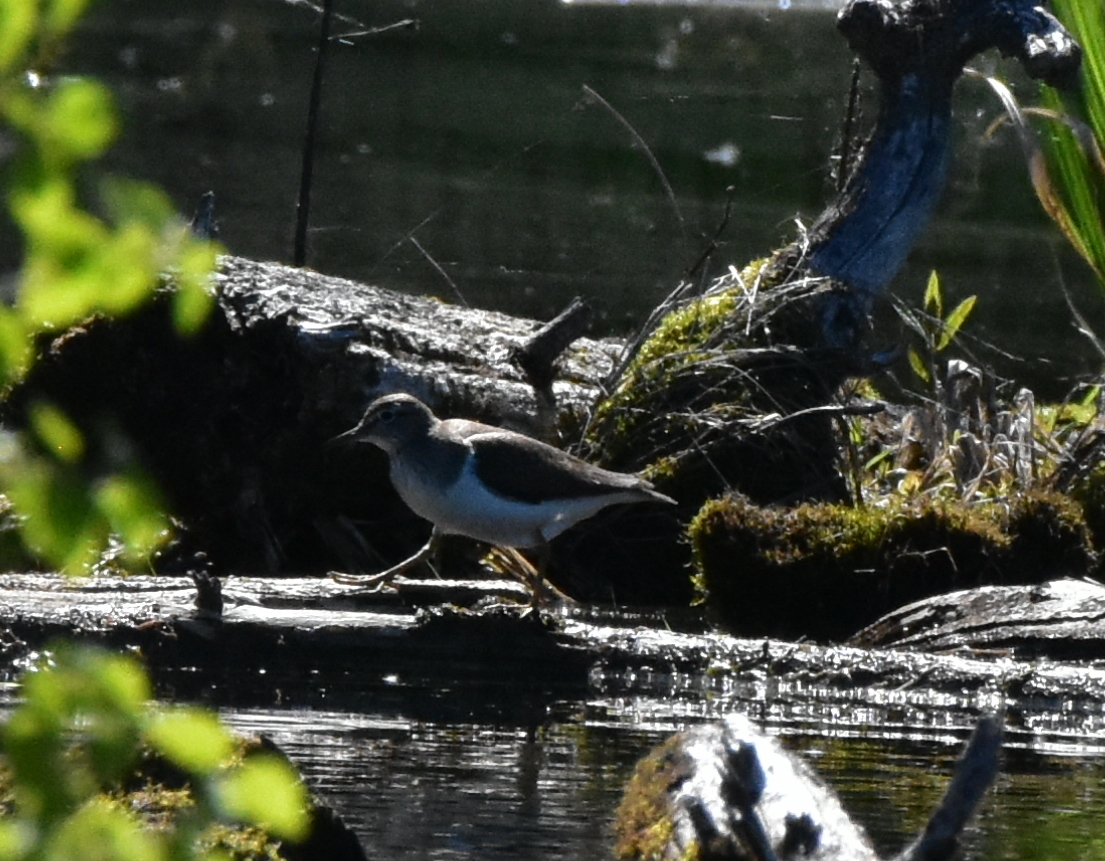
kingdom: Animalia
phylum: Chordata
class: Aves
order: Charadriiformes
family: Scolopacidae
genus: Actitis
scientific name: Actitis hypoleucos
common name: Common sandpiper
